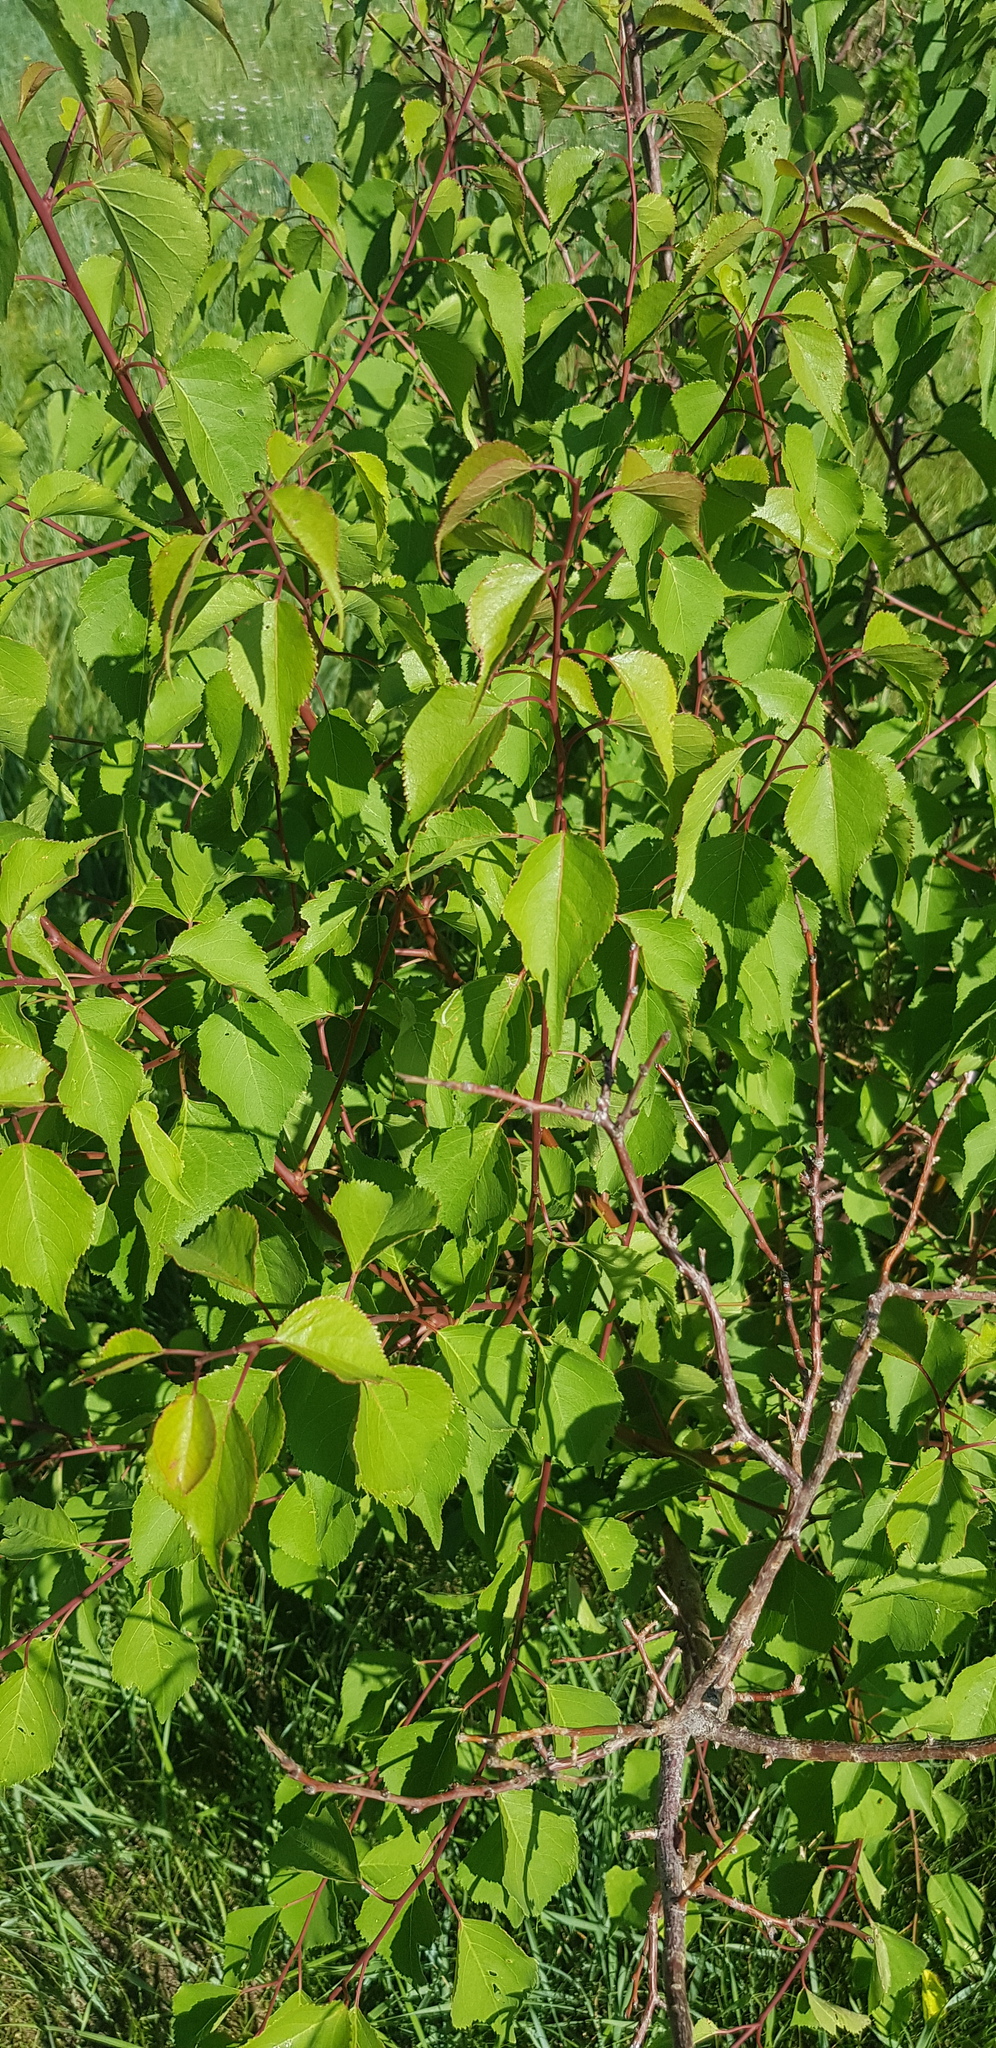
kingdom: Plantae
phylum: Tracheophyta
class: Magnoliopsida
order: Rosales
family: Rosaceae
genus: Prunus
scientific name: Prunus sibirica
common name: Siberian apricot
